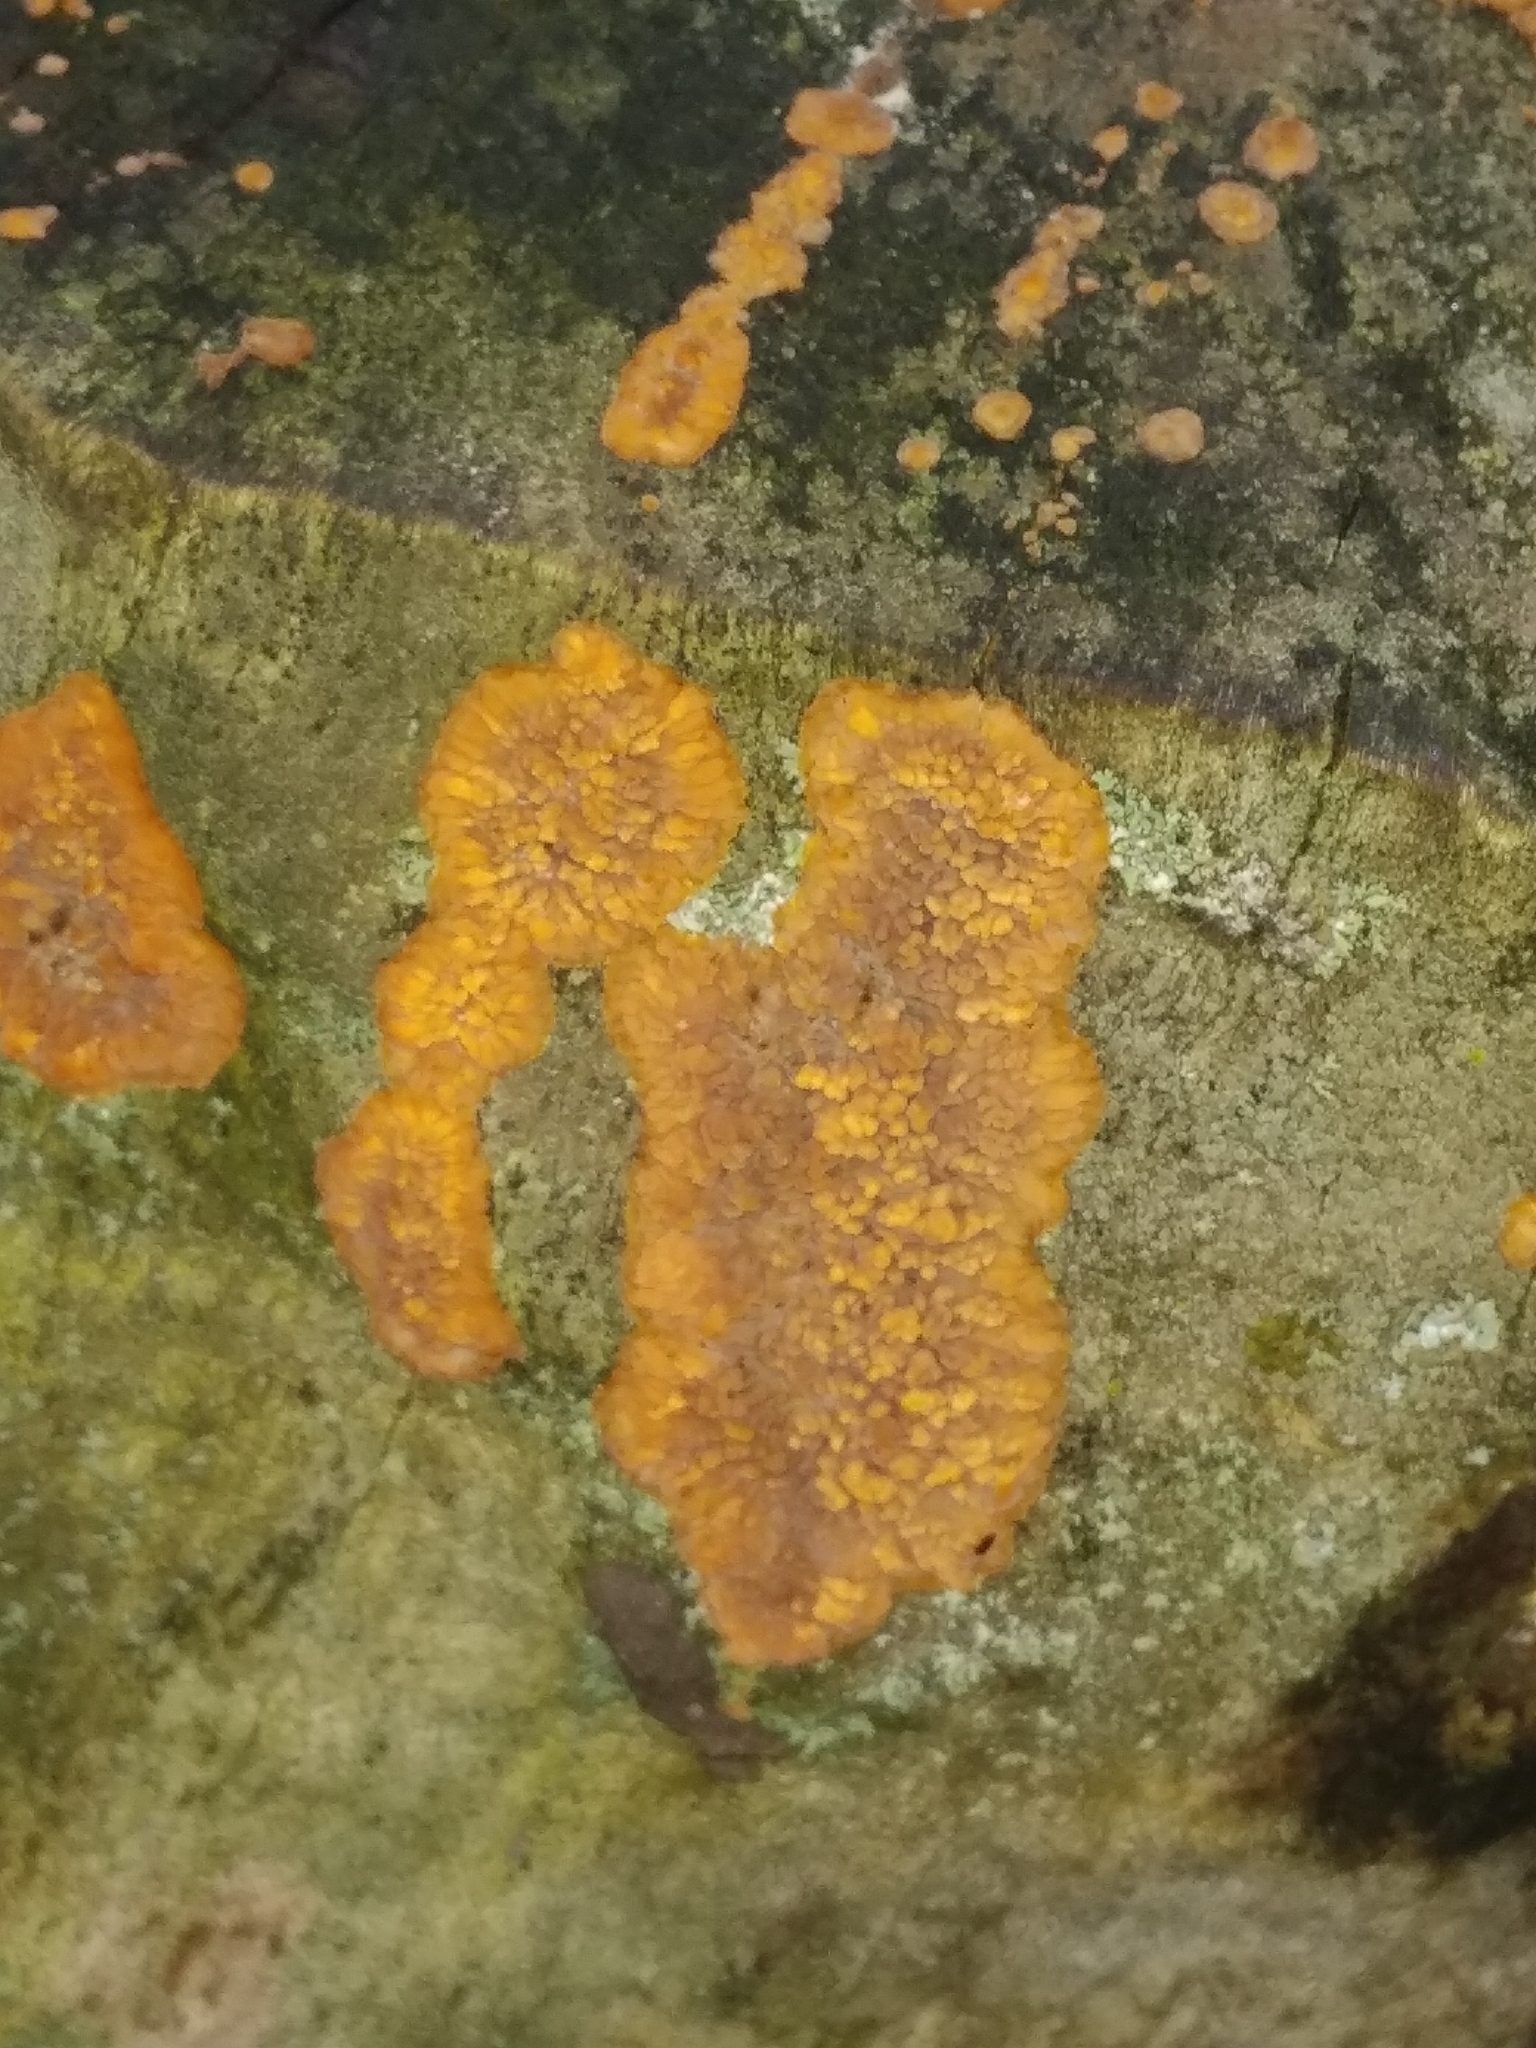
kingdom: Fungi
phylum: Basidiomycota
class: Agaricomycetes
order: Polyporales
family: Meruliaceae
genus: Phlebia
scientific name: Phlebia radiata
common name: Wrinkled crust
